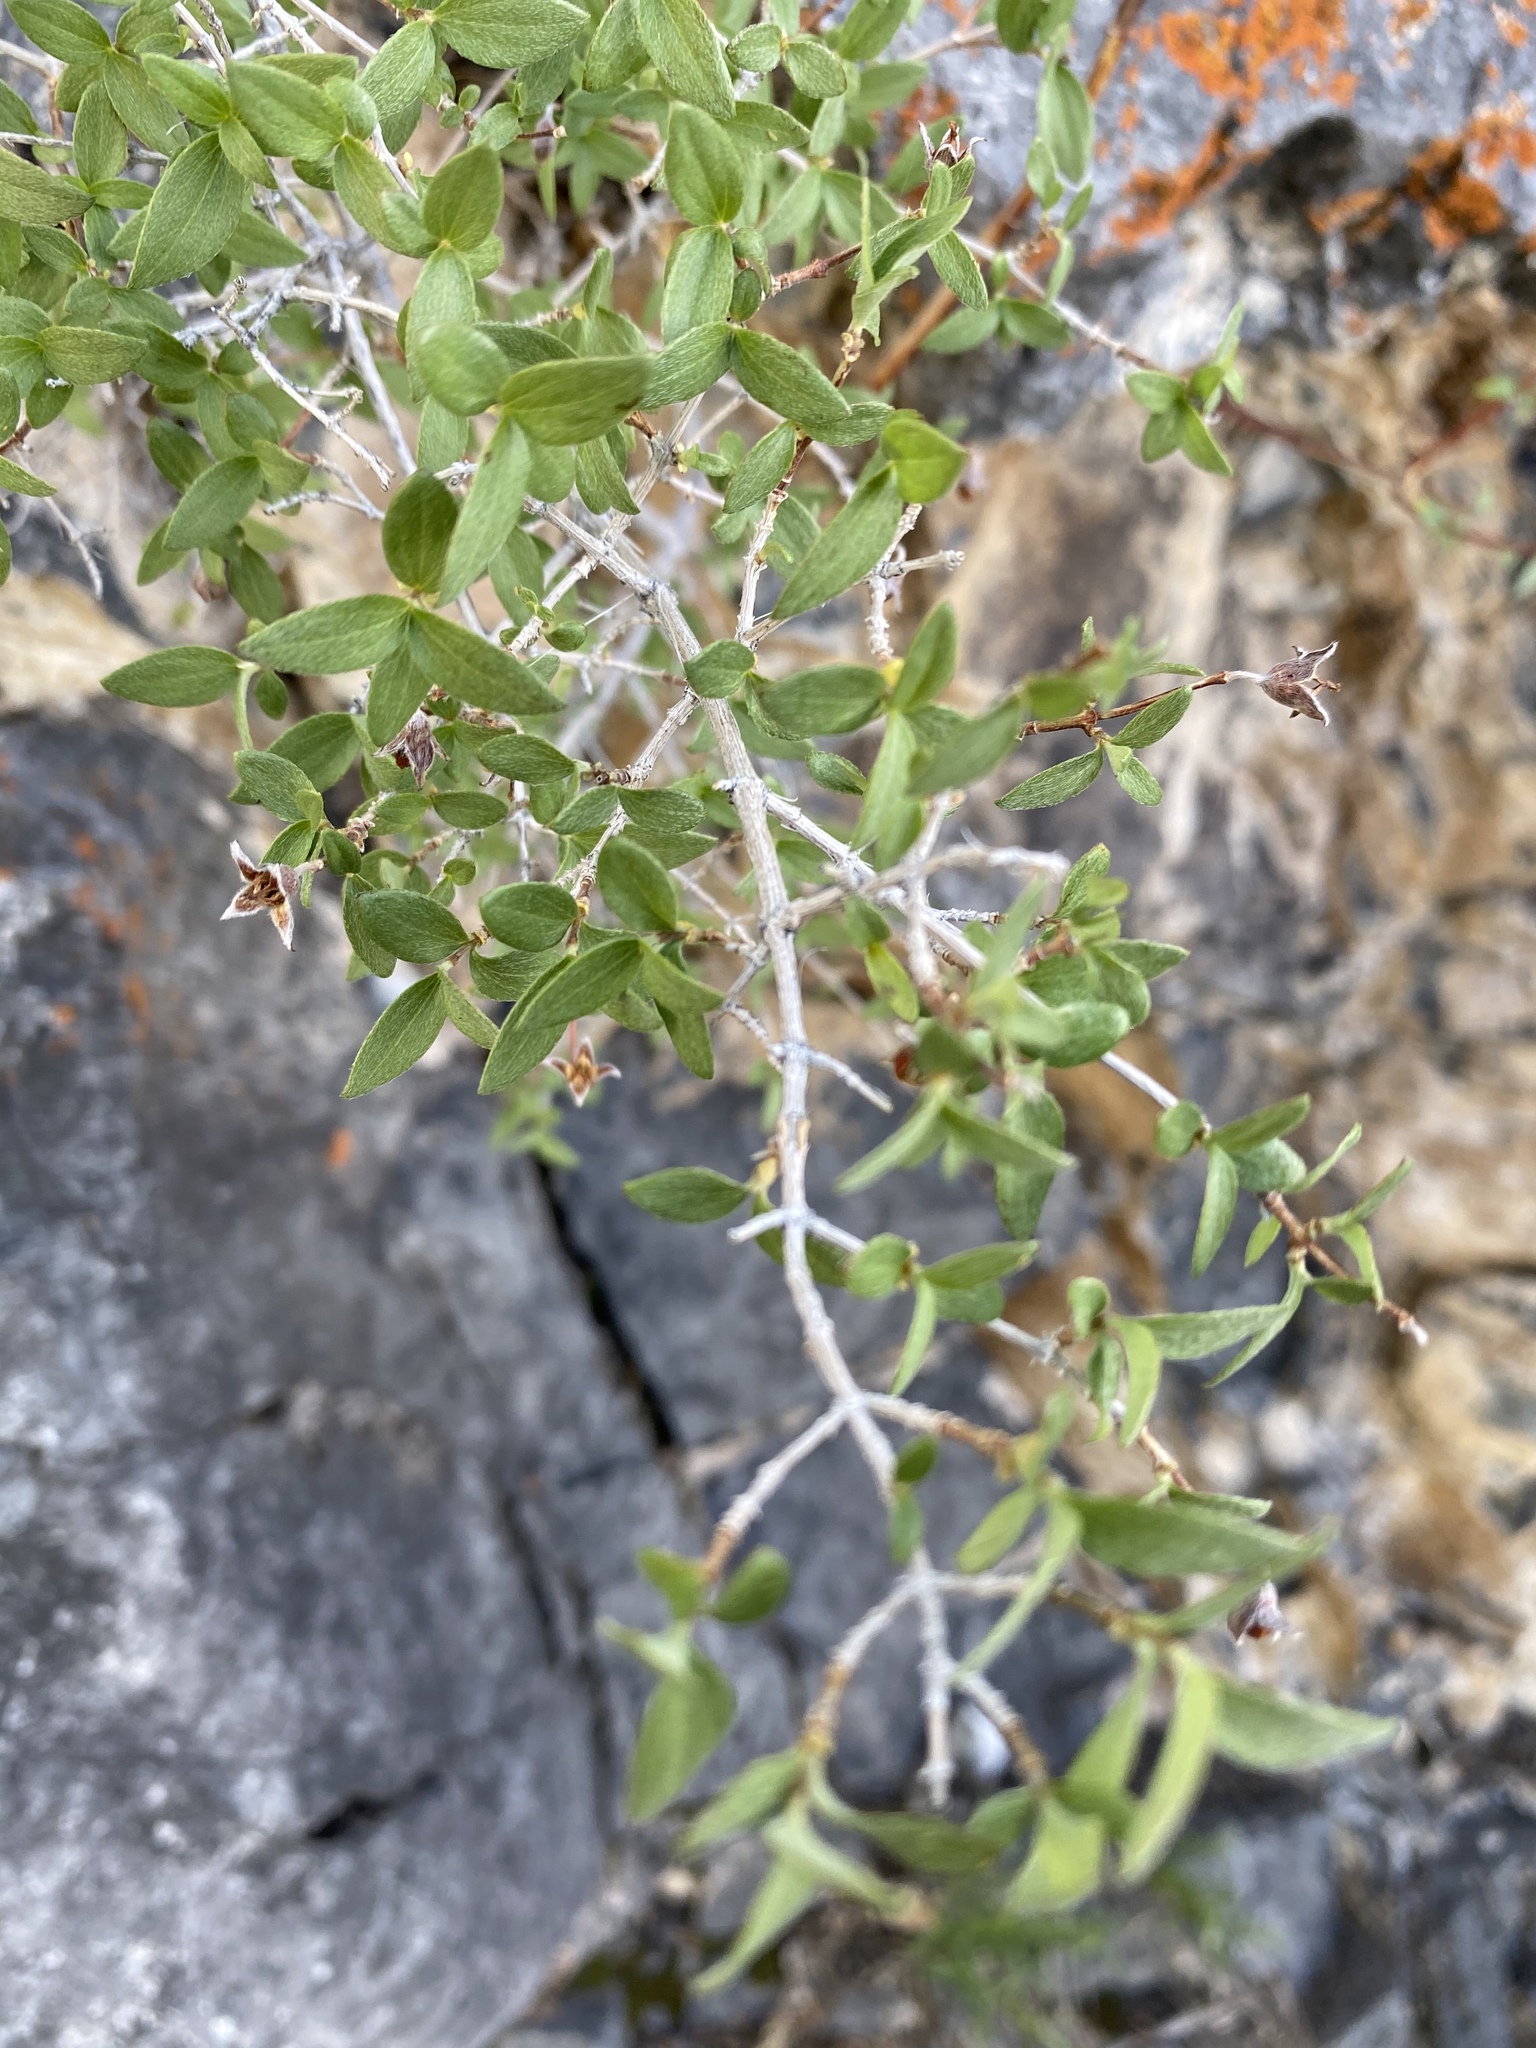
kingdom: Plantae
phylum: Tracheophyta
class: Magnoliopsida
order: Cornales
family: Hydrangeaceae
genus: Philadelphus
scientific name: Philadelphus microphyllus
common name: Desert mock orange
